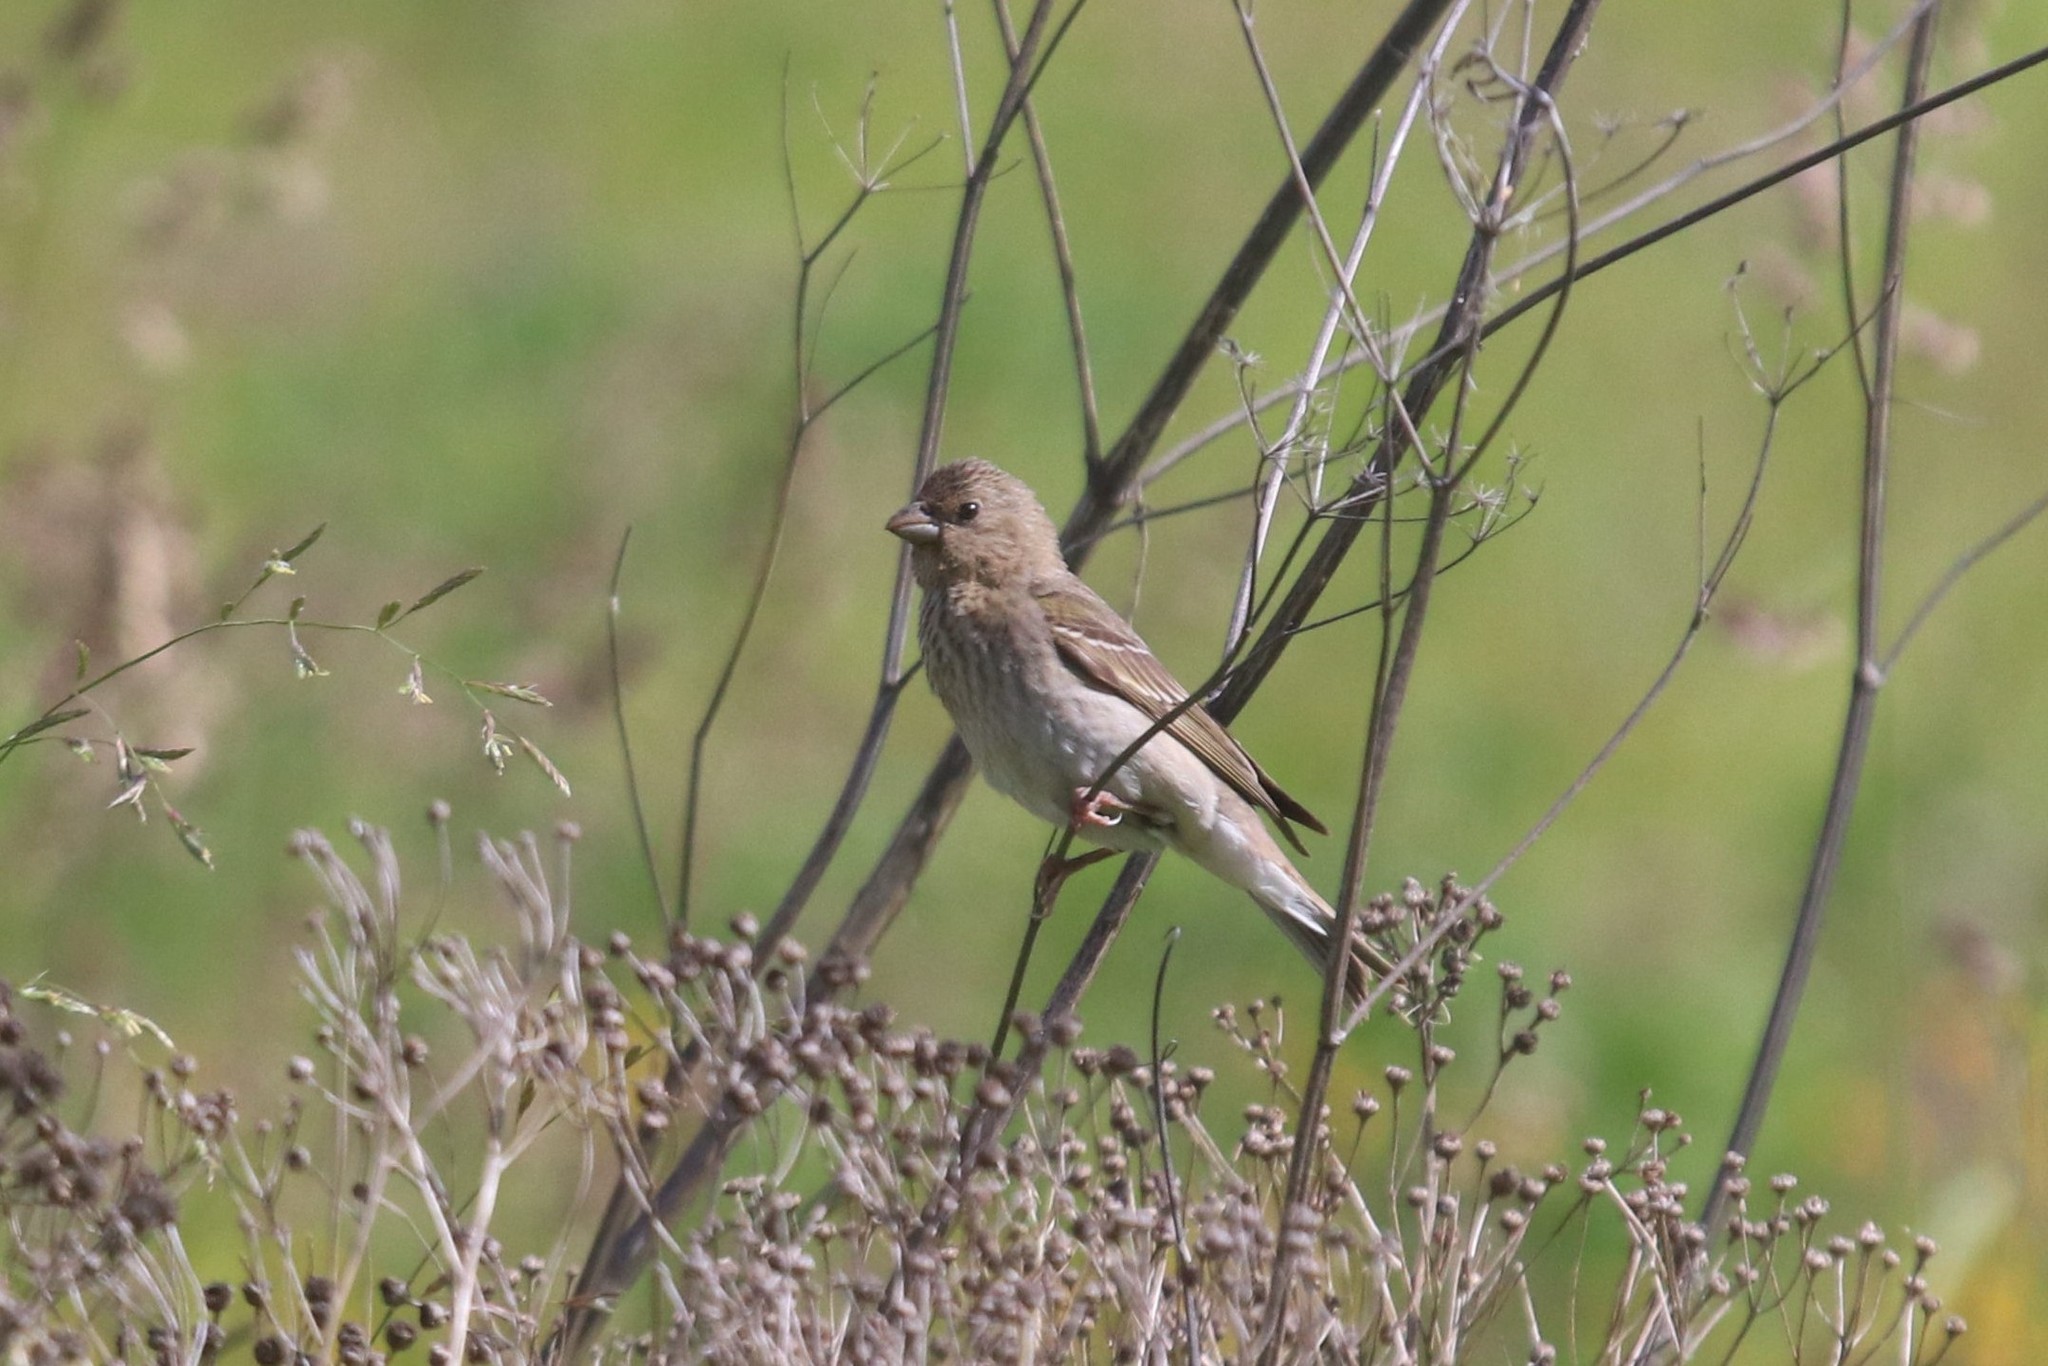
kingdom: Animalia
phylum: Chordata
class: Aves
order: Passeriformes
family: Fringillidae
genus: Carpodacus
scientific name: Carpodacus erythrinus
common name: Common rosefinch
